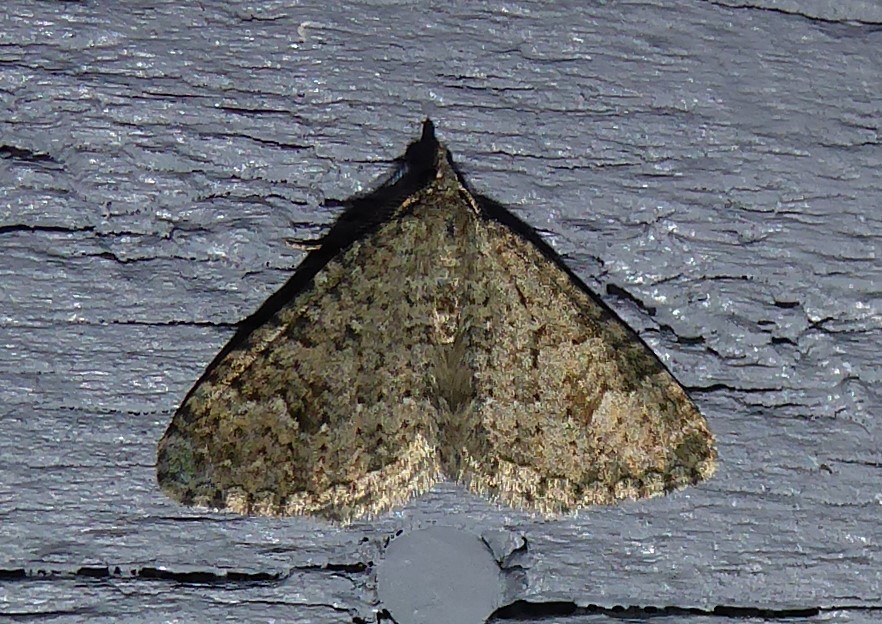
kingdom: Animalia
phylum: Arthropoda
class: Insecta
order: Lepidoptera
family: Geometridae
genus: Helastia
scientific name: Helastia corcularia
